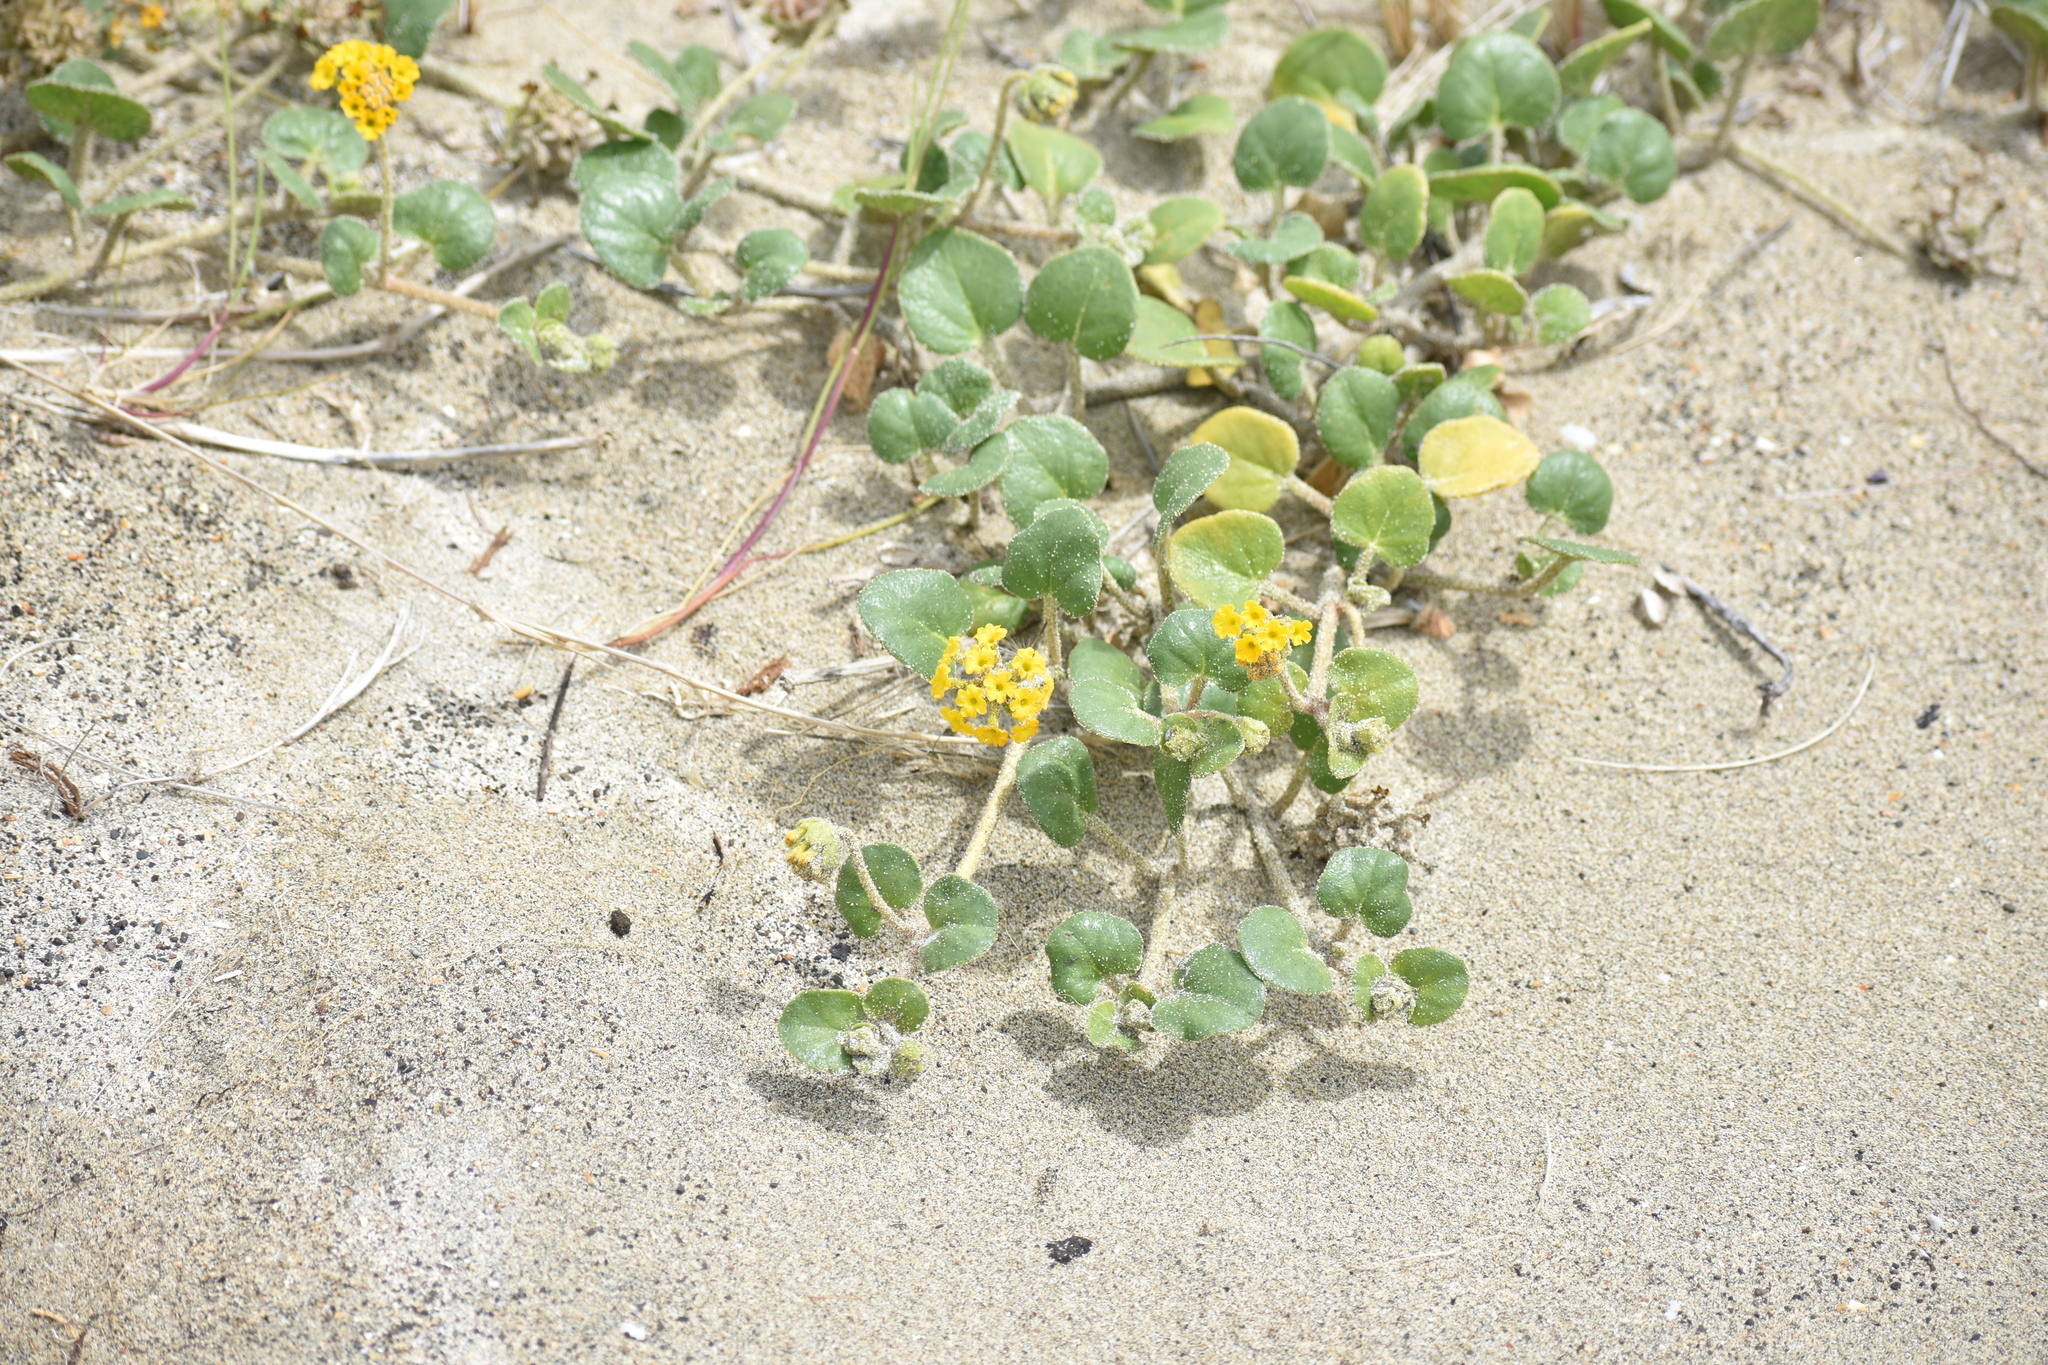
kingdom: Plantae
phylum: Tracheophyta
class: Magnoliopsida
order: Caryophyllales
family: Nyctaginaceae
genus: Abronia
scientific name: Abronia latifolia
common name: Yellow sand-verbena
